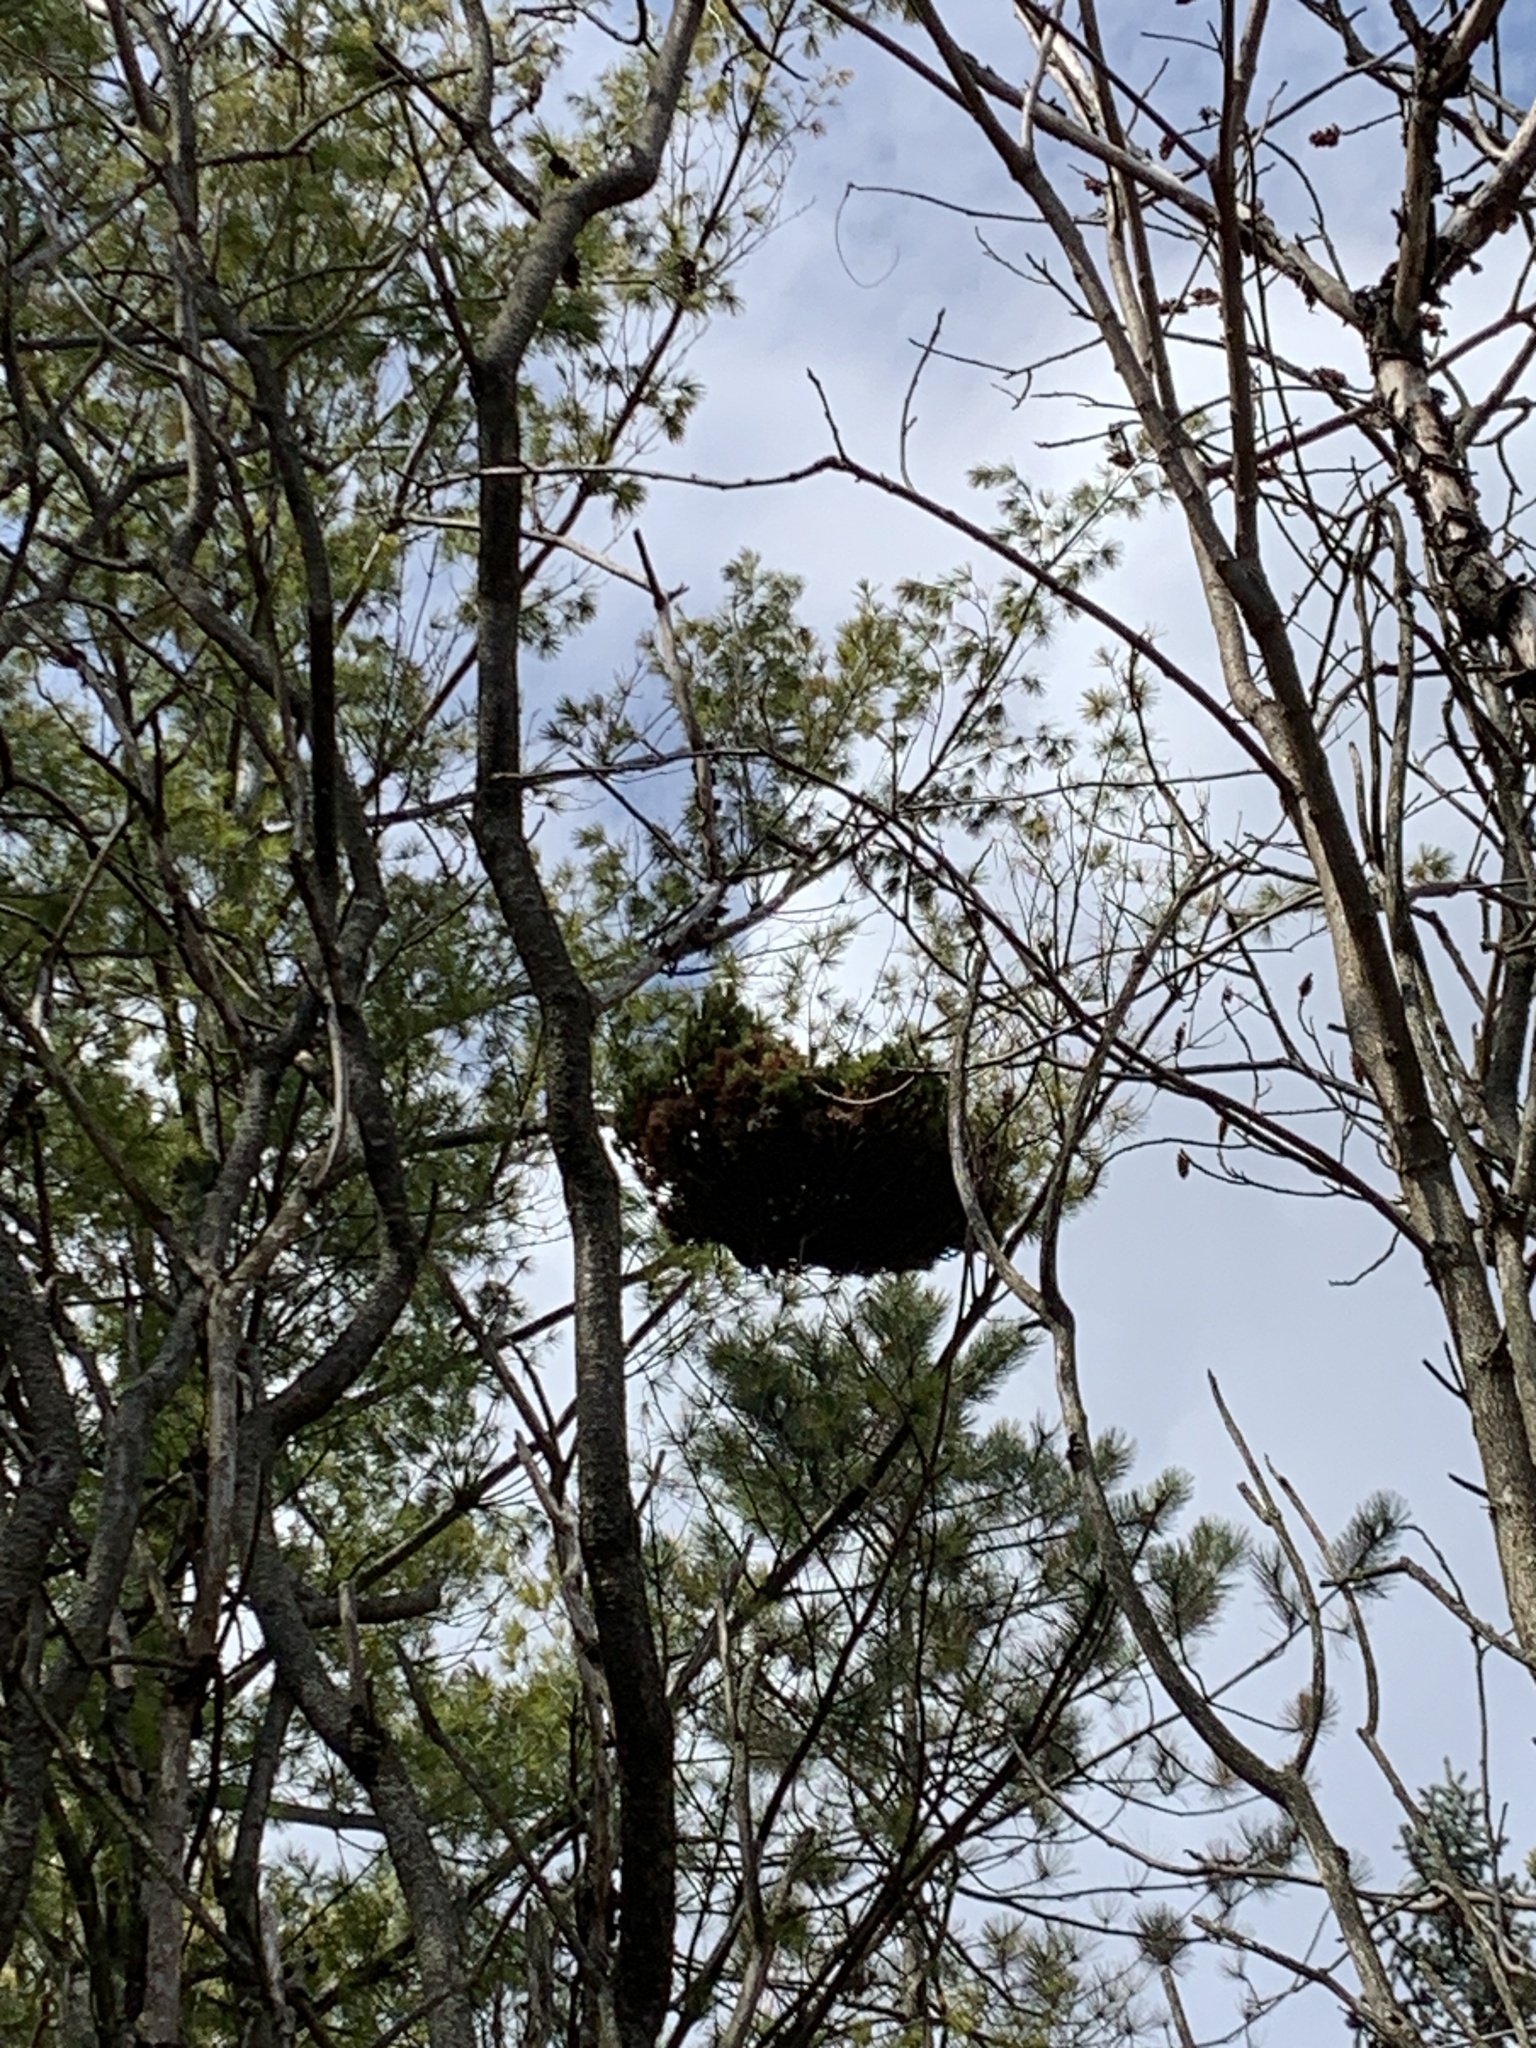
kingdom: Bacteria
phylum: Firmicutes
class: Bacilli
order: Acholeplasmatales
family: Acholeplasmataceae
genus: Phytoplasma
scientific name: Phytoplasma pini
